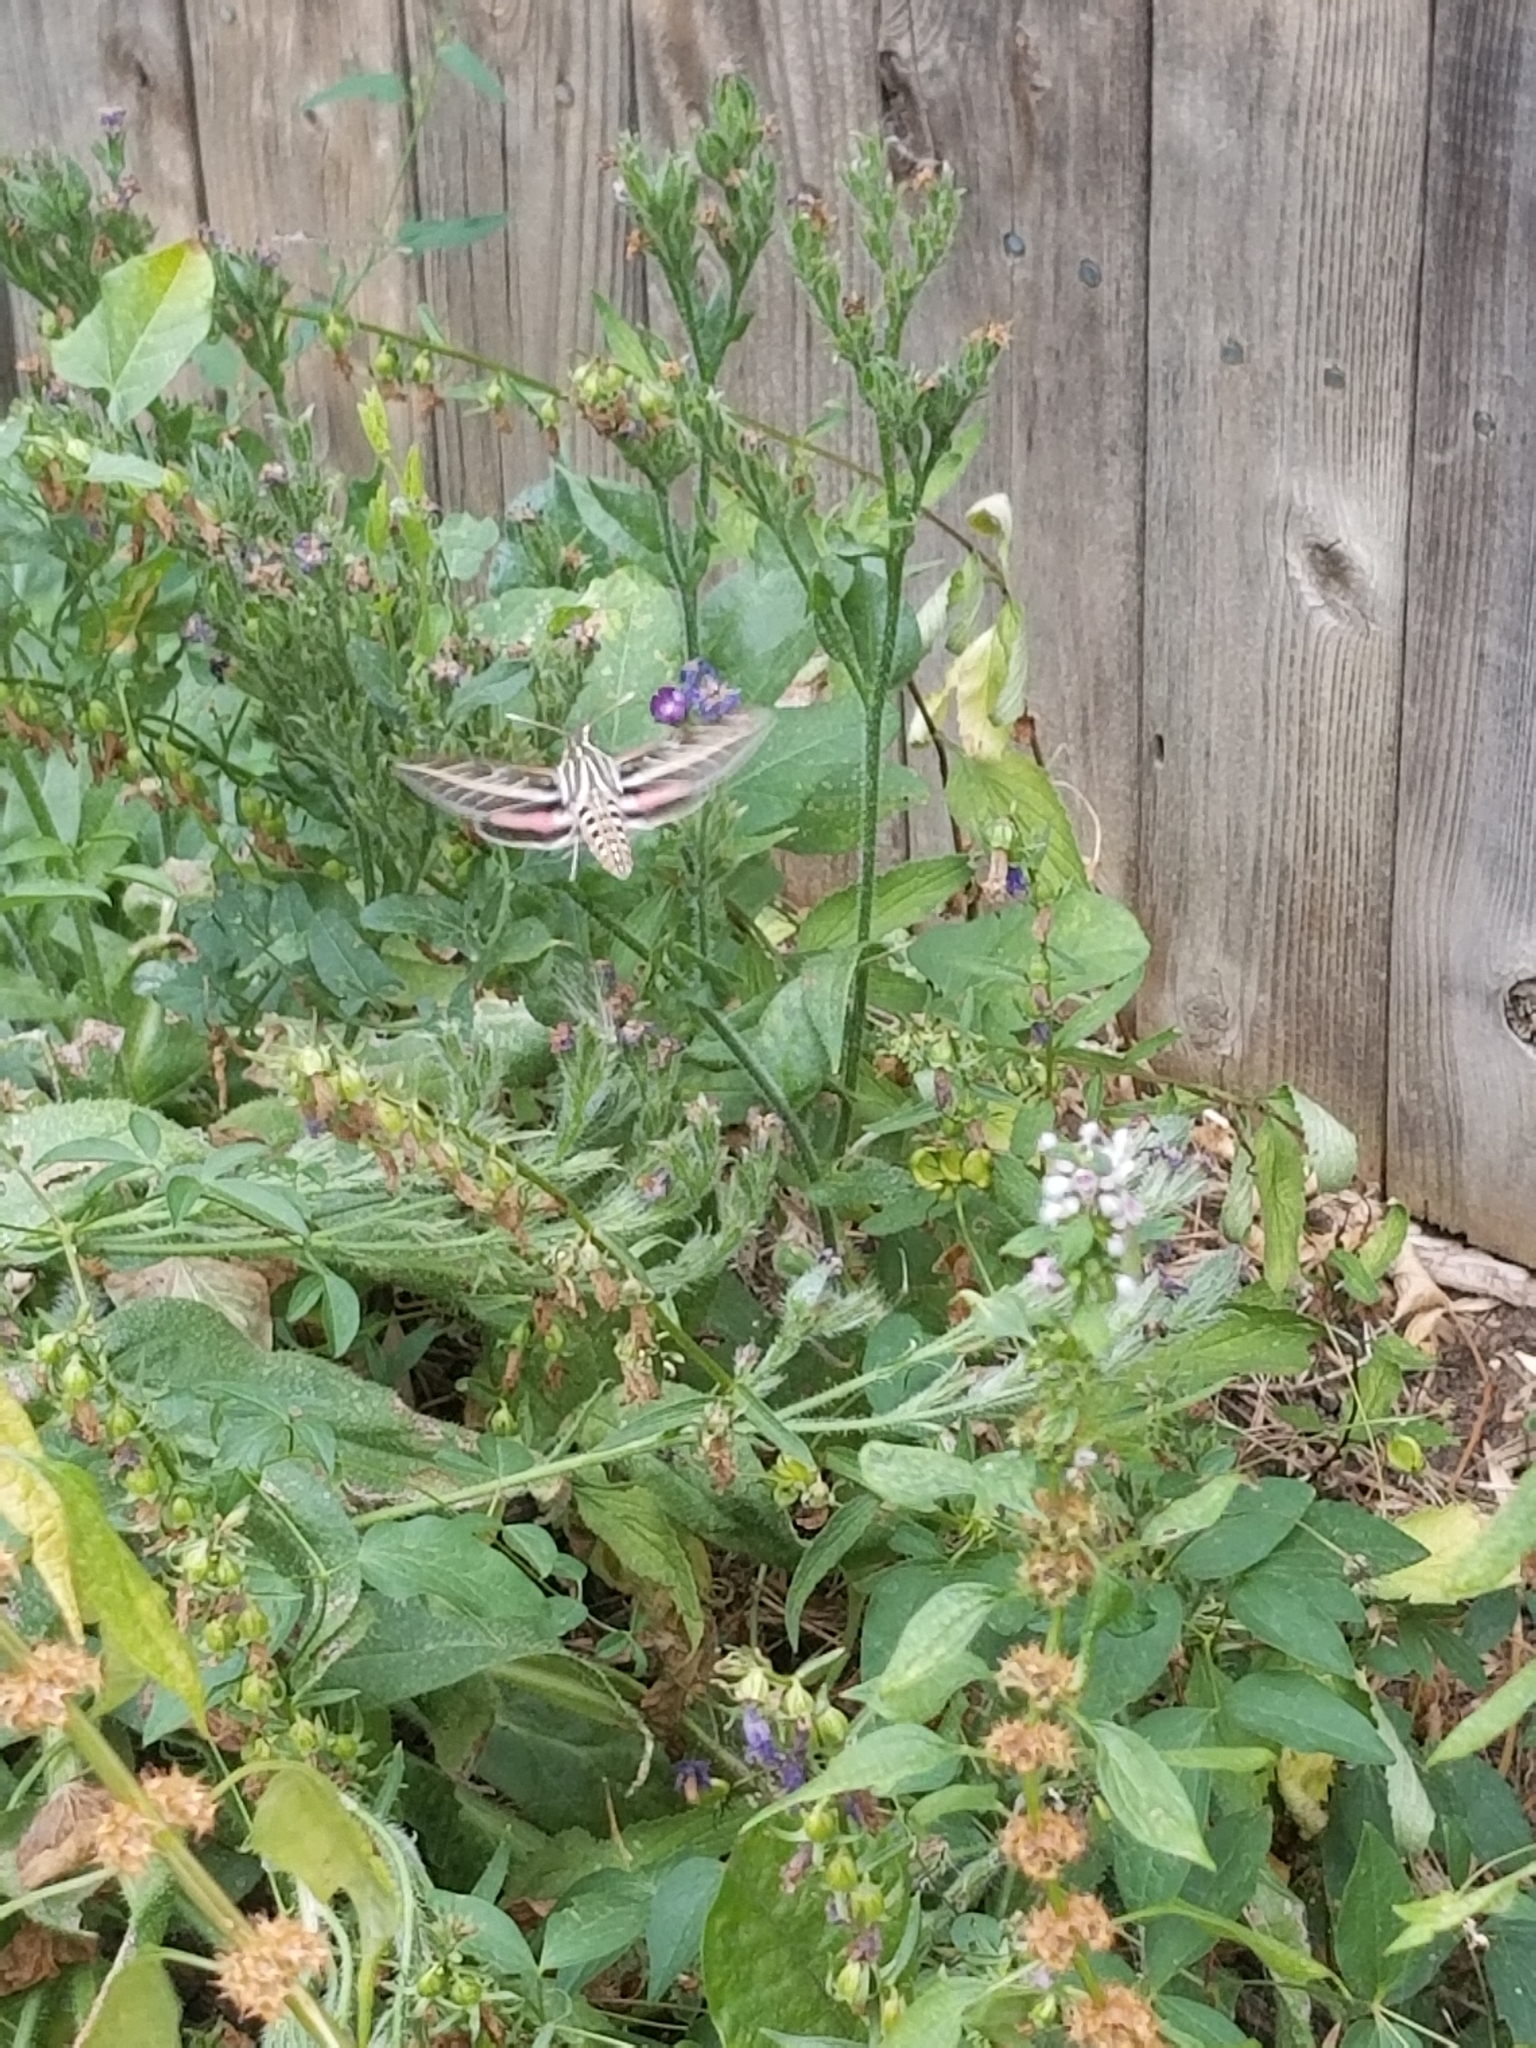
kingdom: Animalia
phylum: Arthropoda
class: Insecta
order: Lepidoptera
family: Sphingidae
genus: Hyles
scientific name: Hyles lineata
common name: White-lined sphinx
